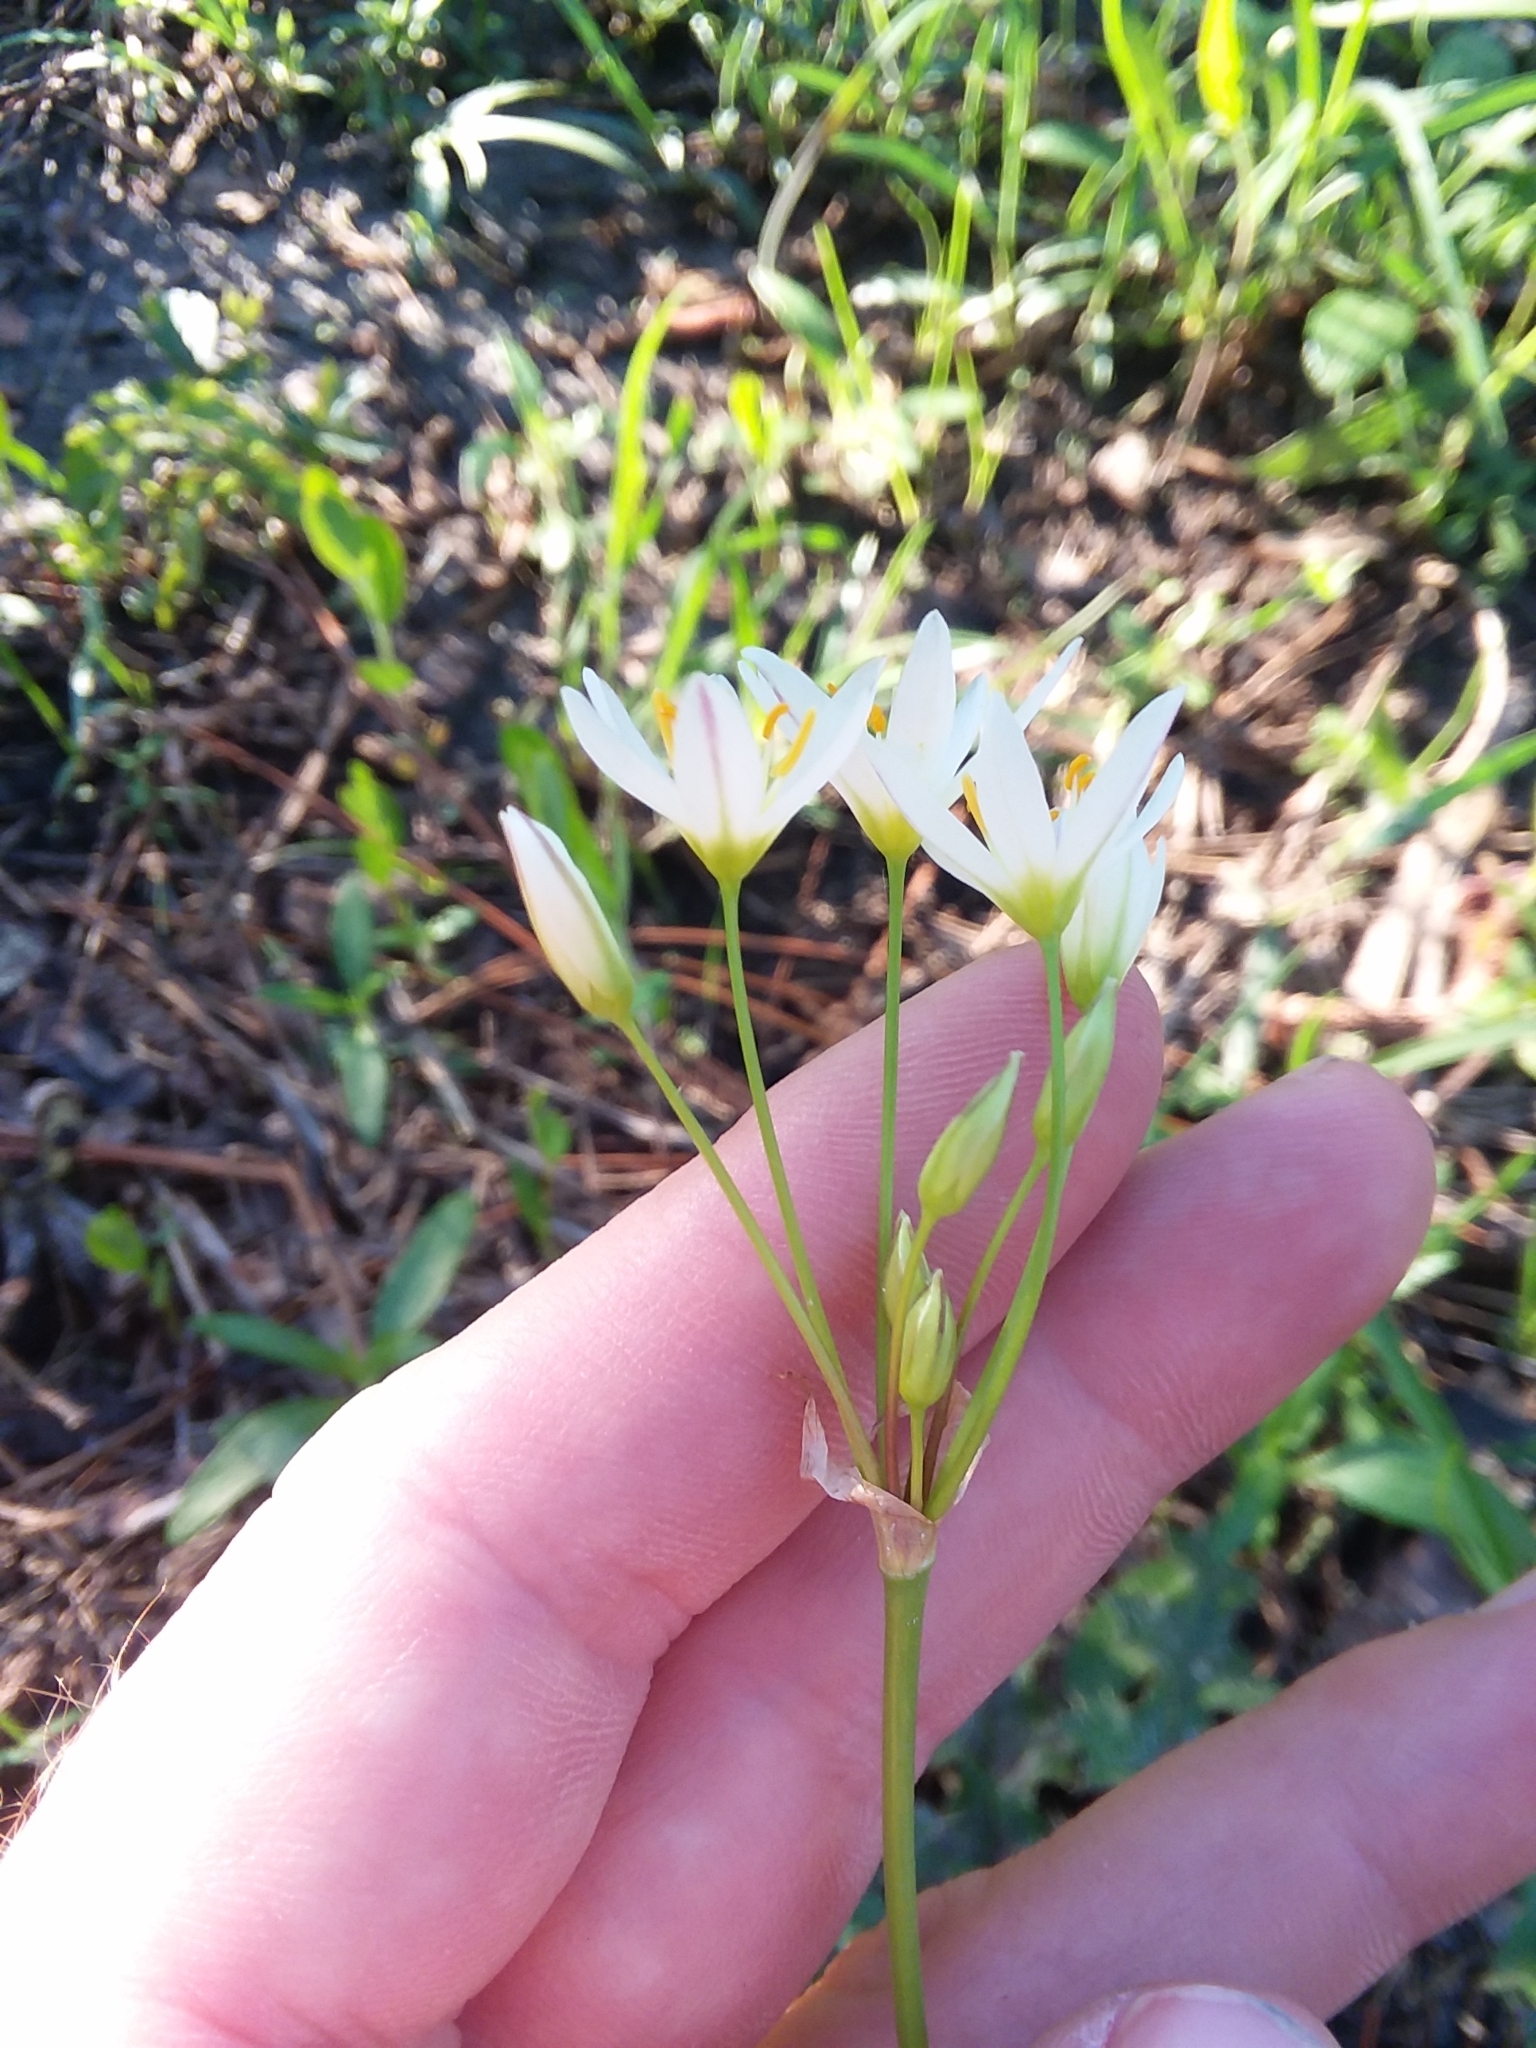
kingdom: Plantae
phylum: Tracheophyta
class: Liliopsida
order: Asparagales
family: Amaryllidaceae
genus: Nothoscordum
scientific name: Nothoscordum bivalve
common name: Crow-poison
